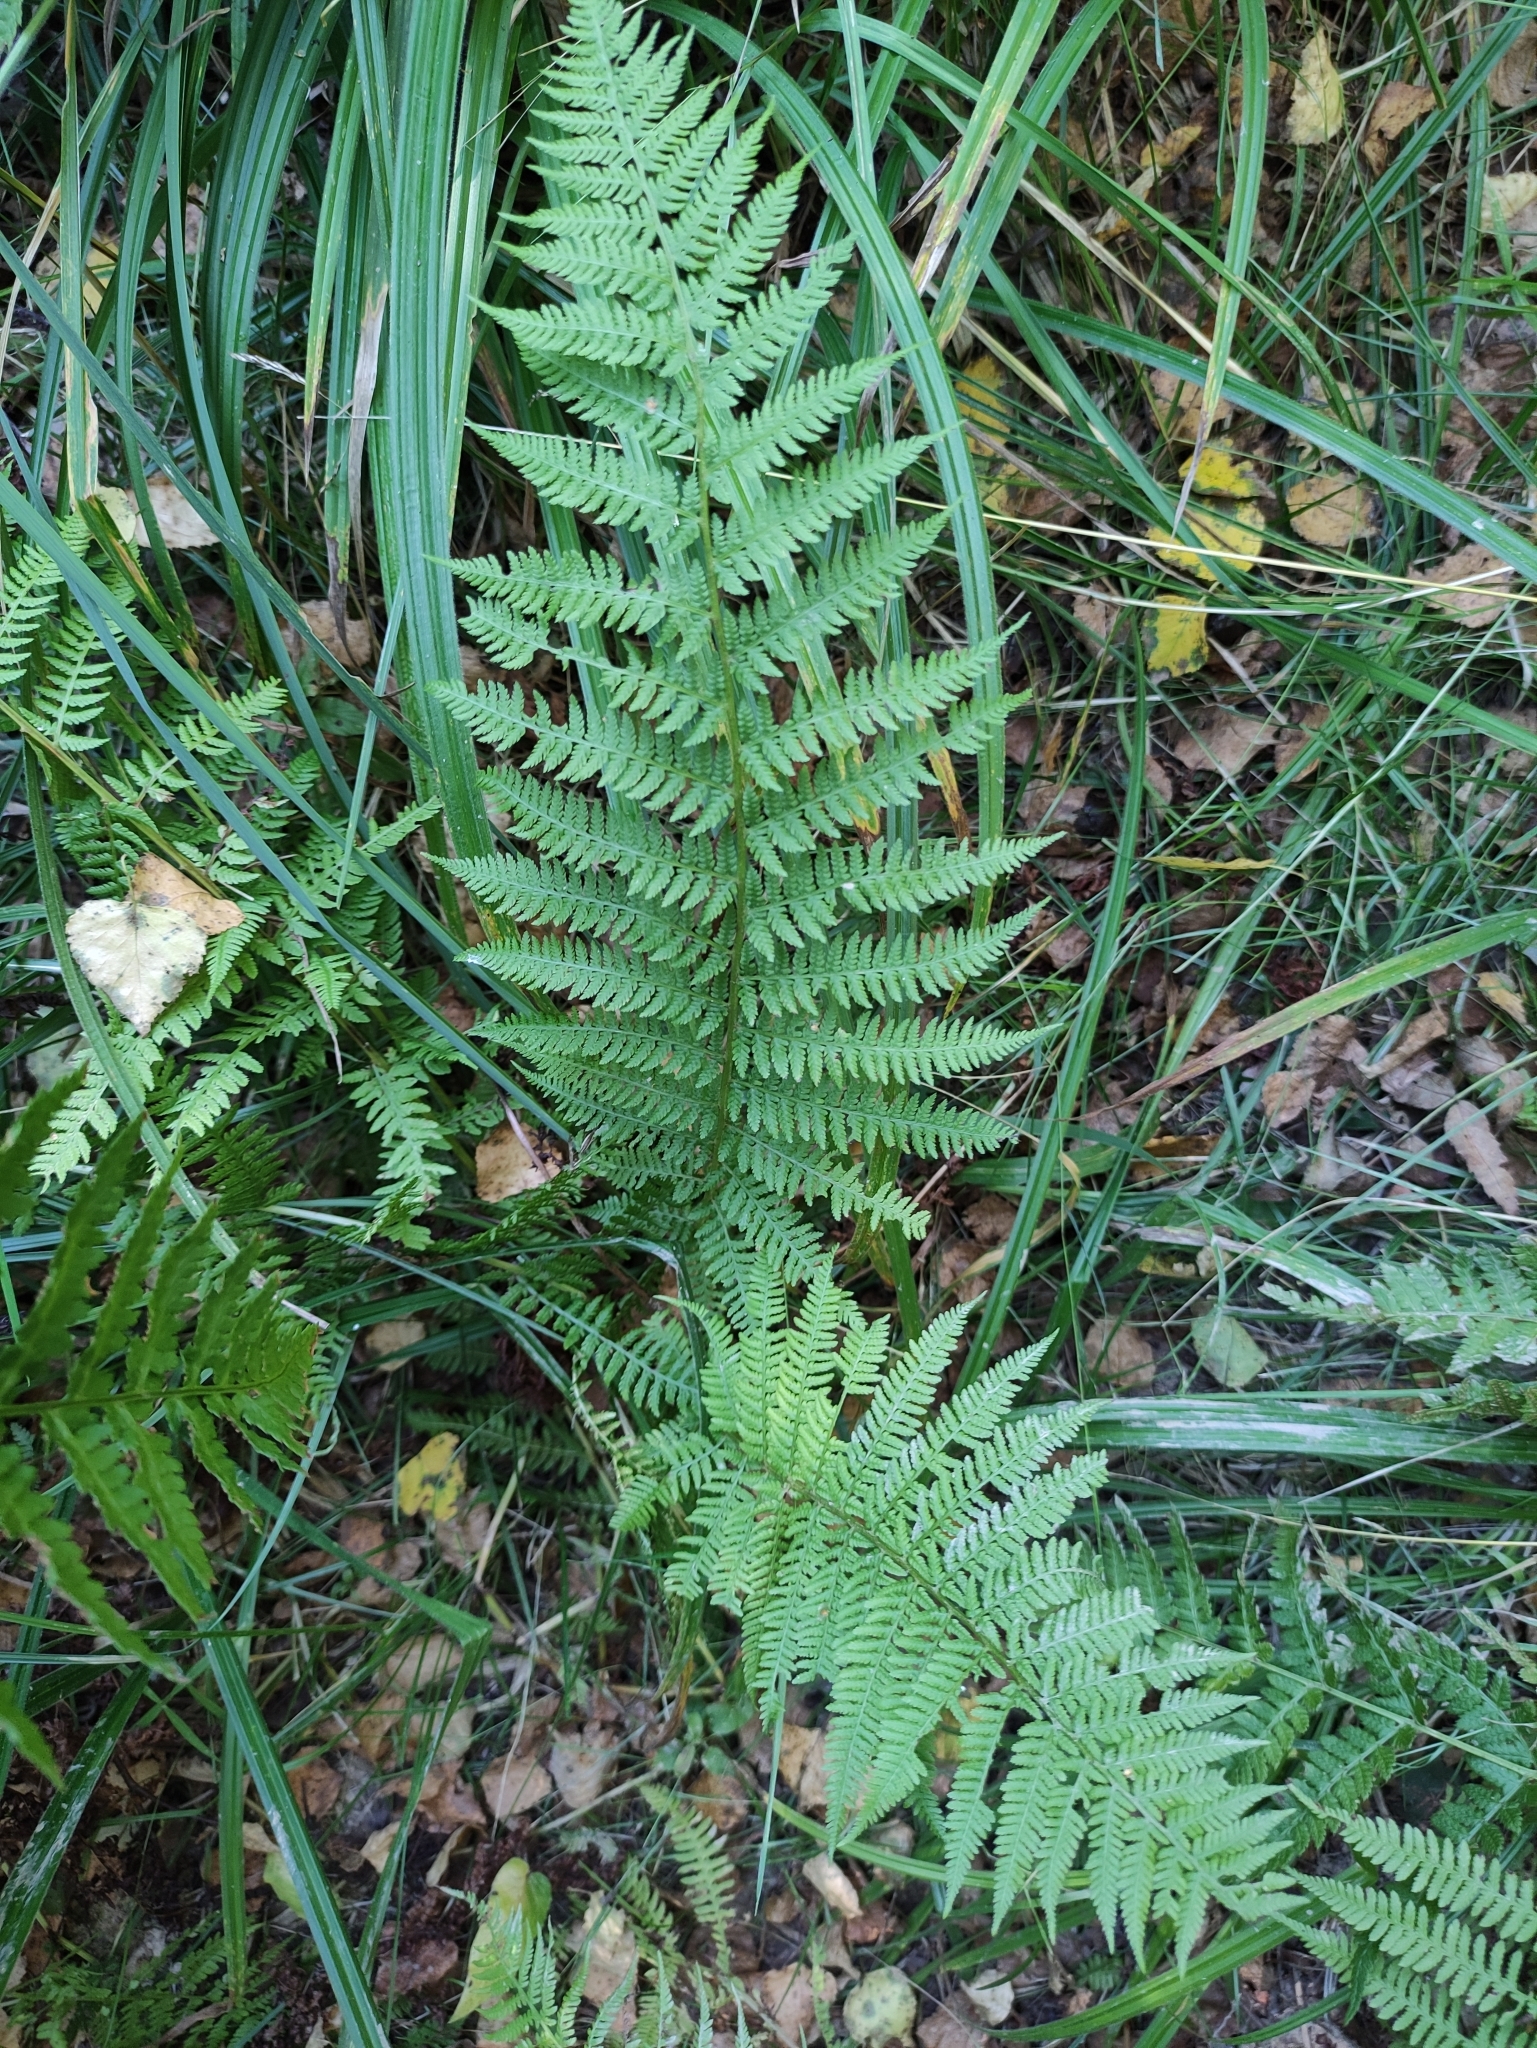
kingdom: Plantae
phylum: Tracheophyta
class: Polypodiopsida
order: Polypodiales
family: Athyriaceae
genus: Athyrium
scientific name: Athyrium filix-femina
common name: Lady fern
